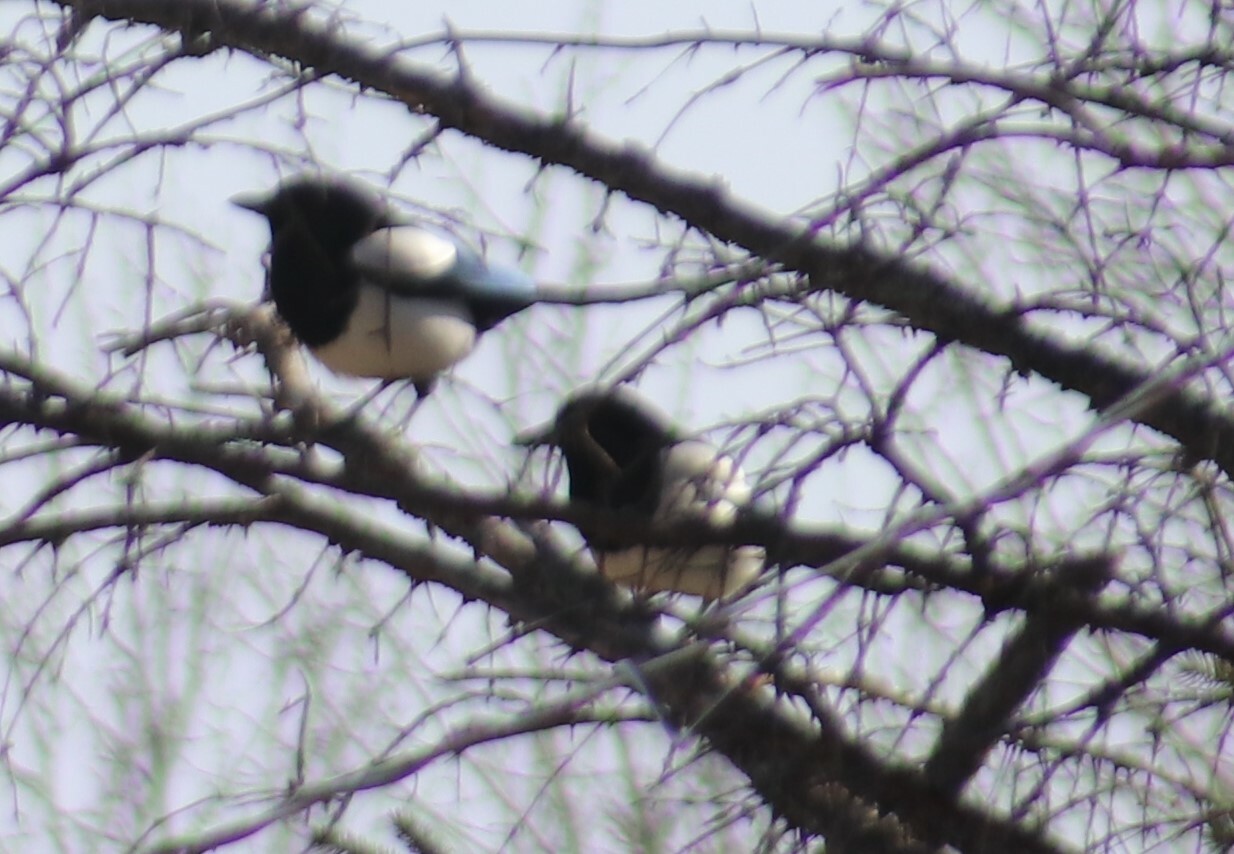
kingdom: Animalia
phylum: Chordata
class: Aves
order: Passeriformes
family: Corvidae
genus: Pica
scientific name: Pica hudsonia
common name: Black-billed magpie
